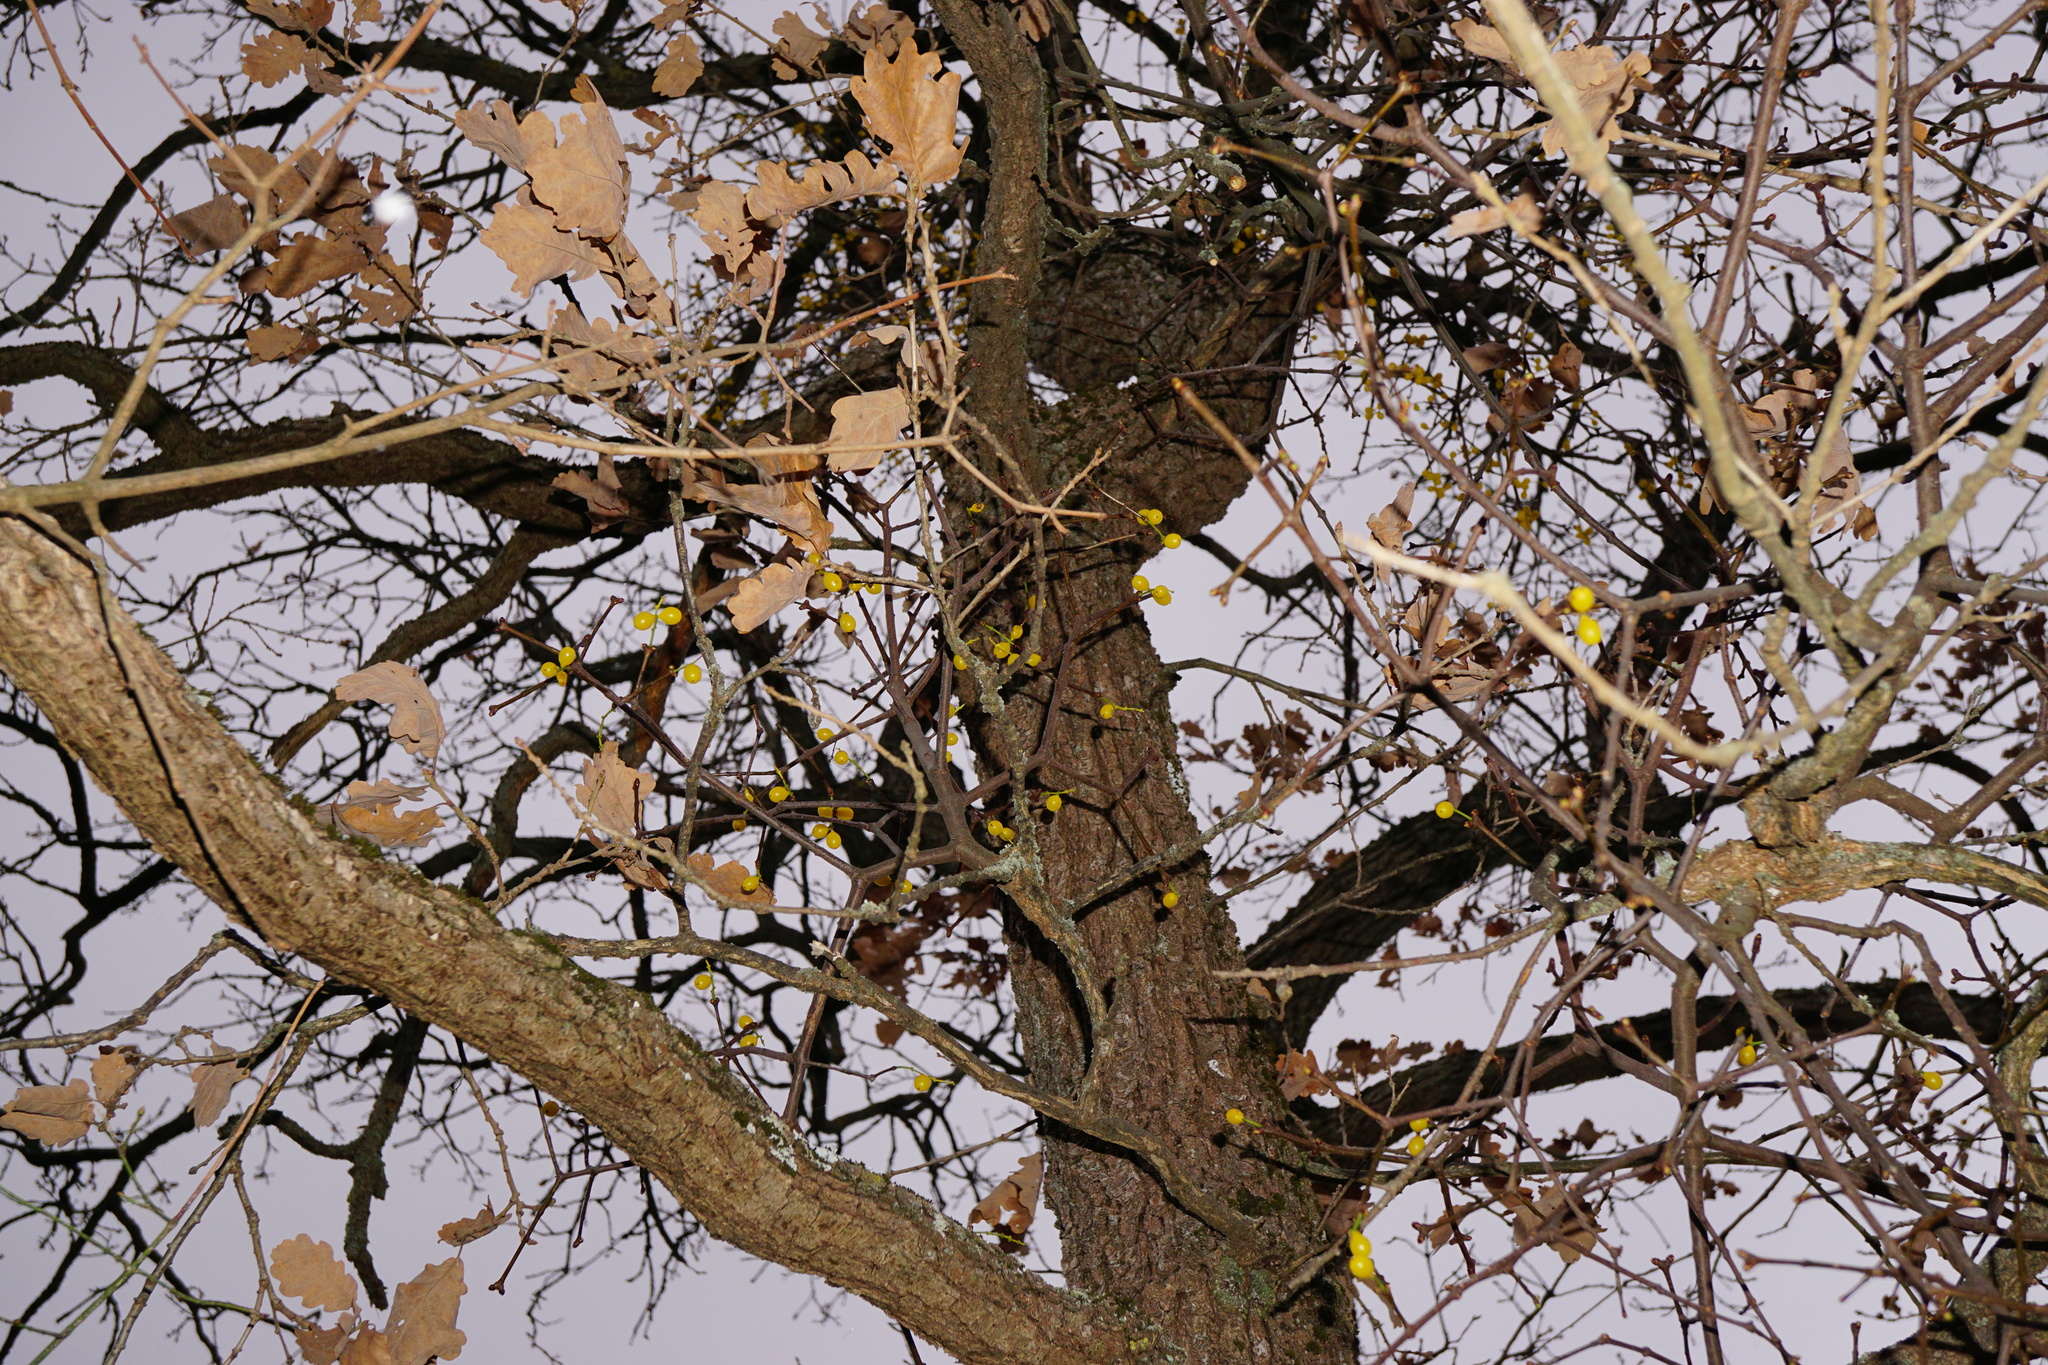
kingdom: Plantae
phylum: Tracheophyta
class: Magnoliopsida
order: Santalales
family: Loranthaceae
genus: Loranthus
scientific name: Loranthus europaeus
